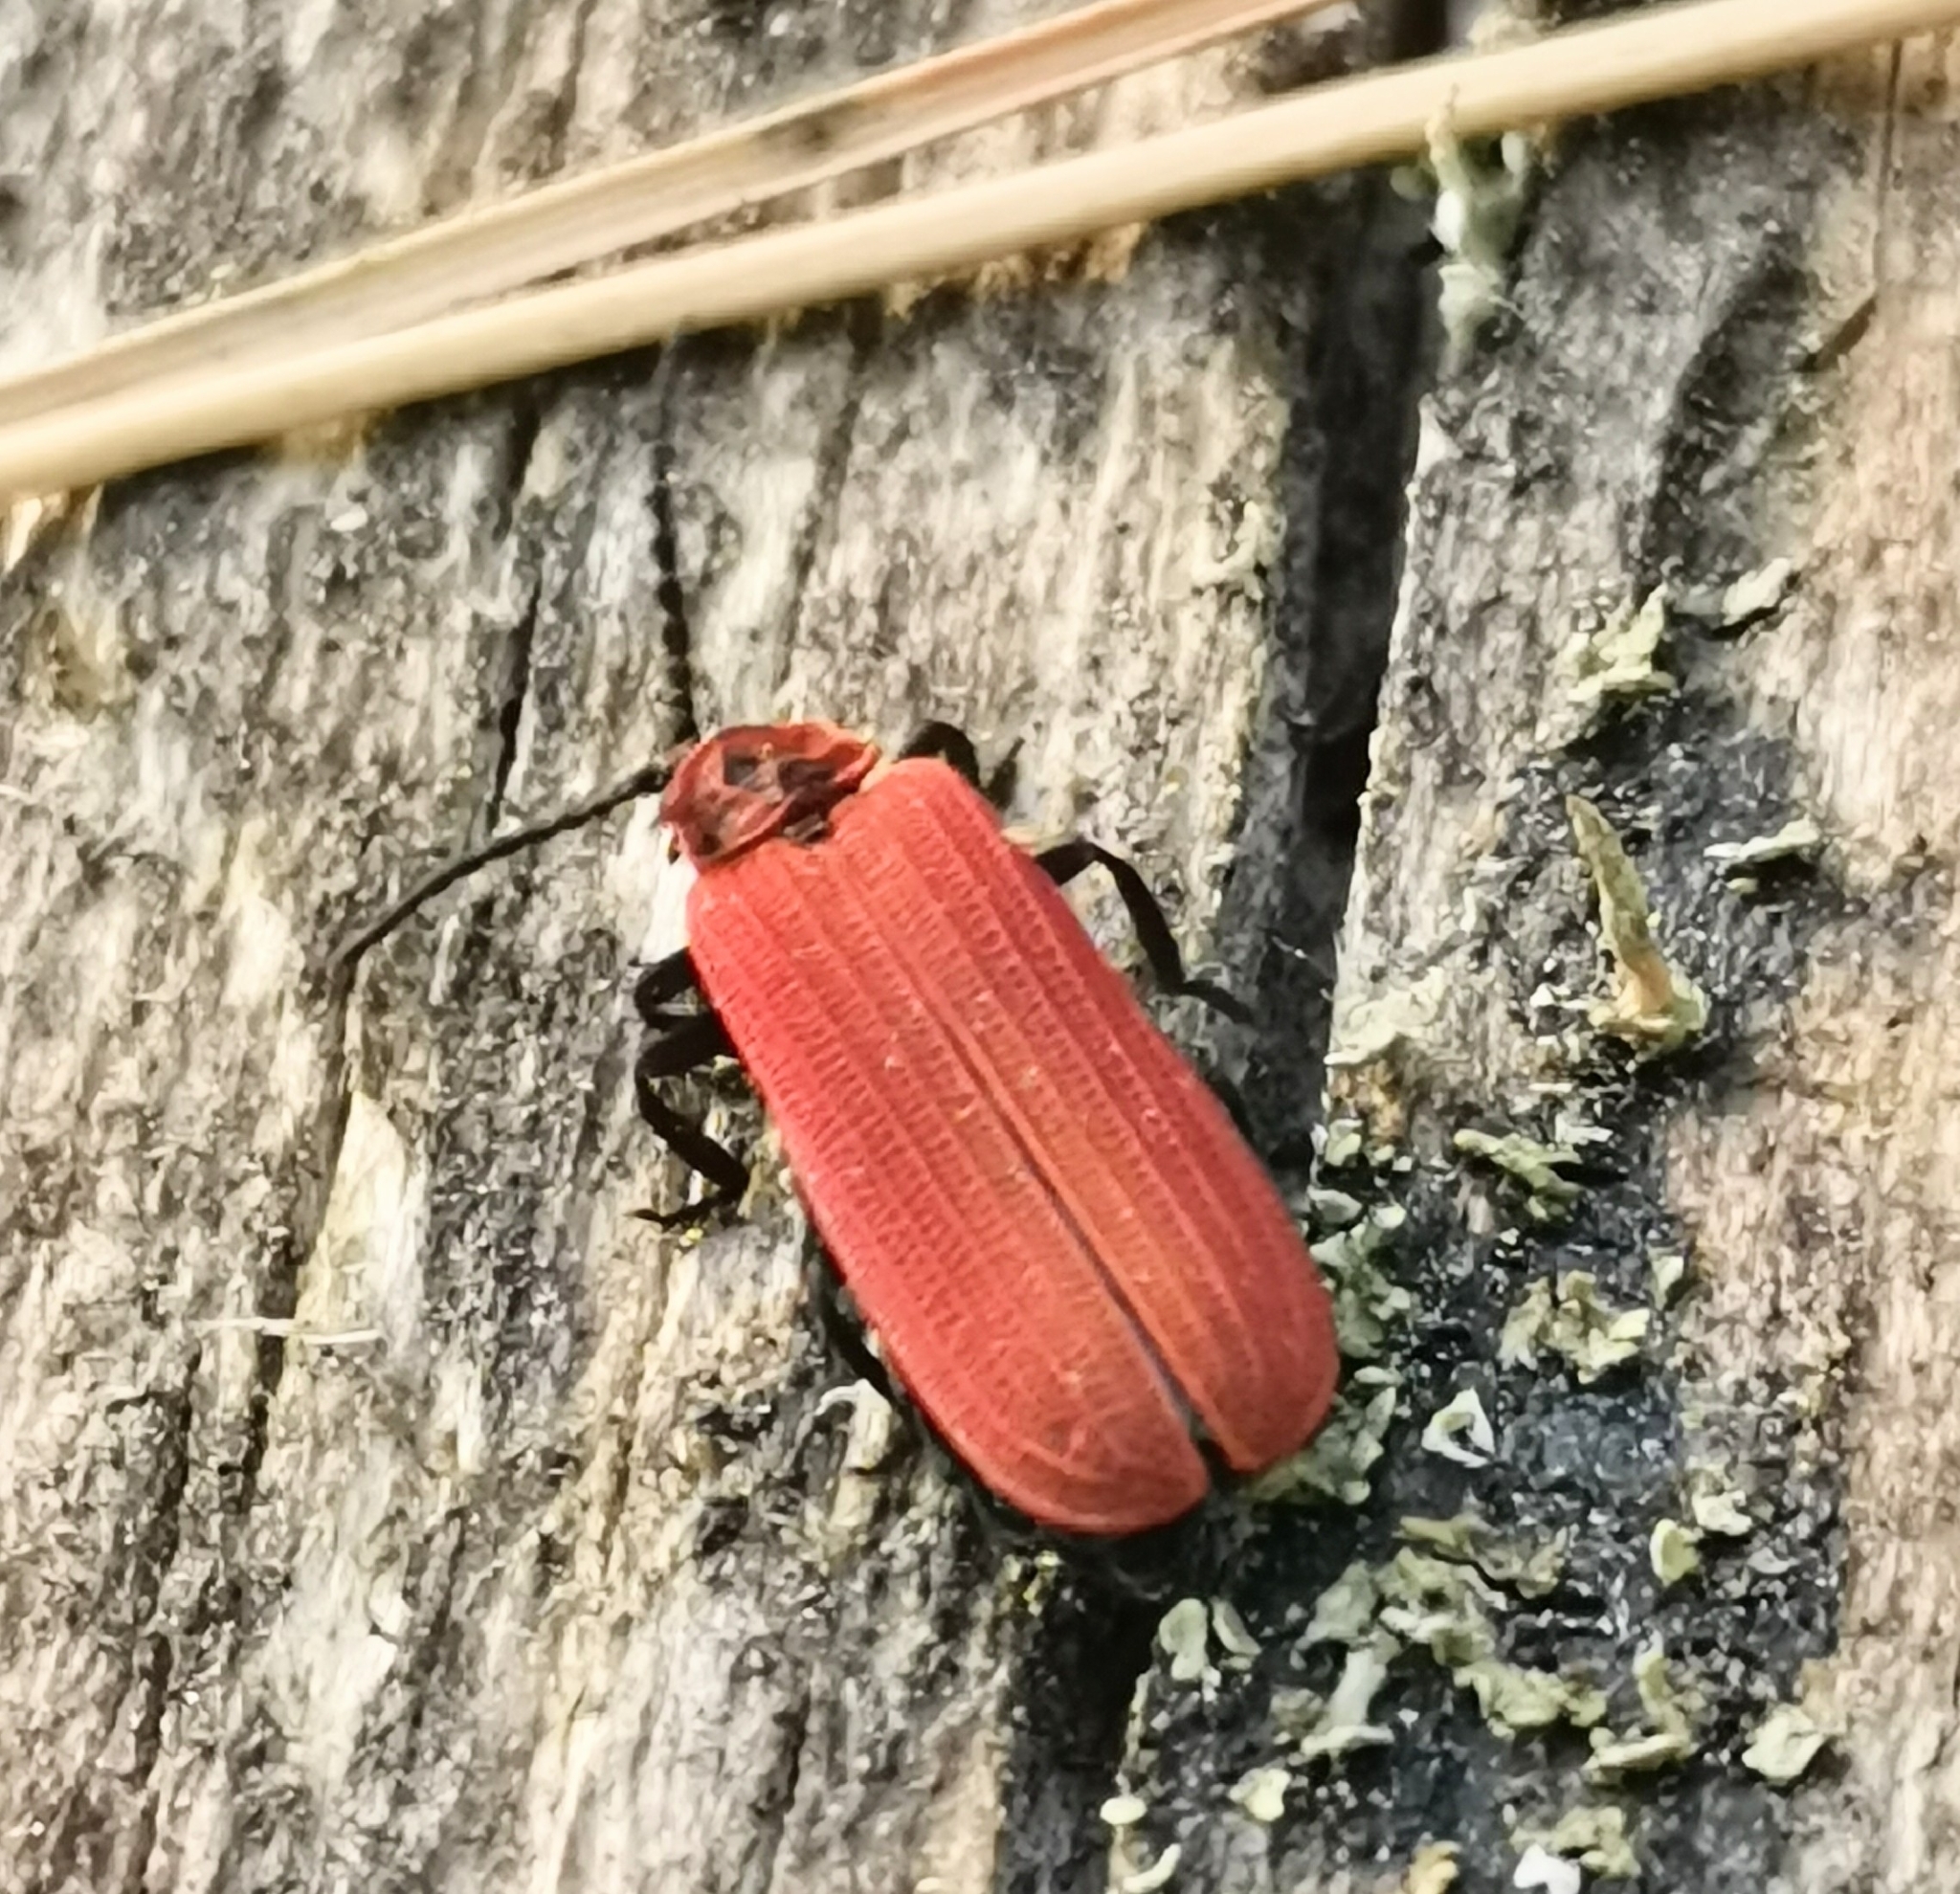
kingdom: Animalia
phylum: Arthropoda
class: Insecta
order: Coleoptera
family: Lycidae
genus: Dictyoptera
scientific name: Dictyoptera aurora
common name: Golden net-winged beetle
